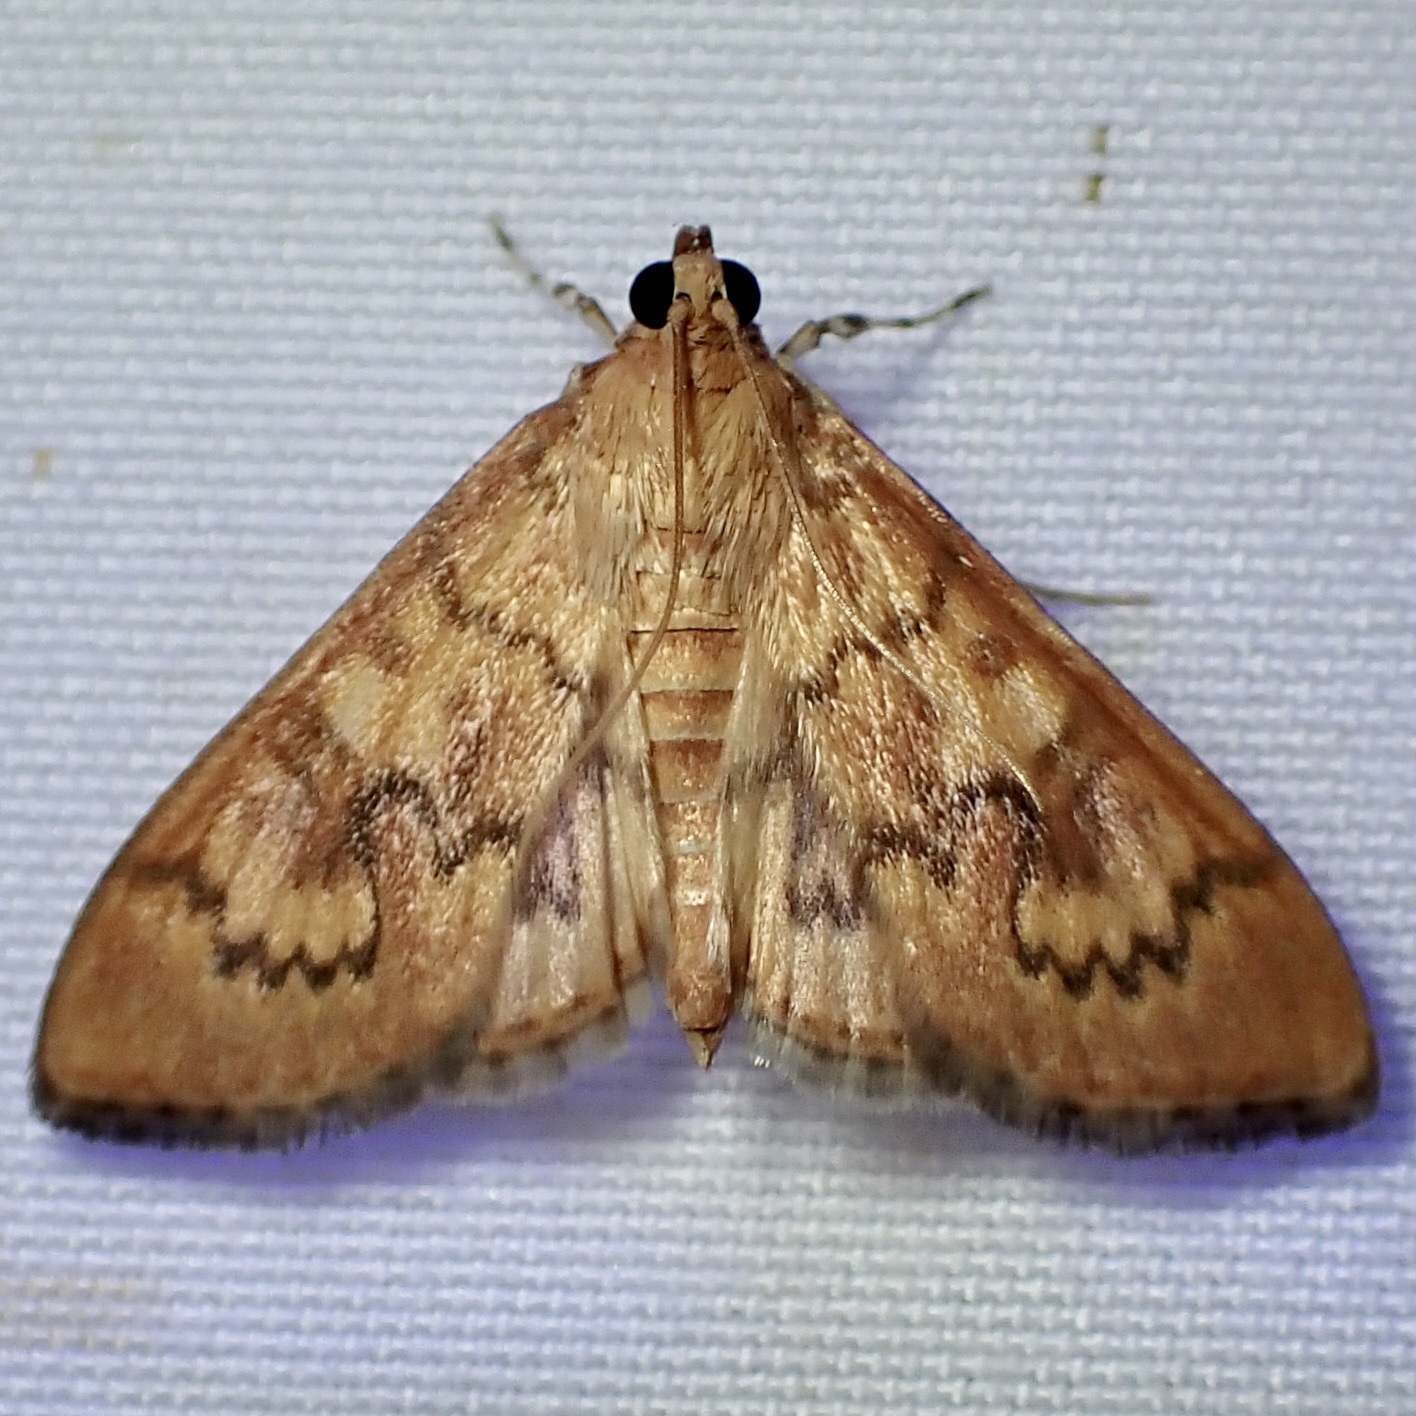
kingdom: Animalia
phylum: Arthropoda
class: Insecta
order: Lepidoptera
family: Crambidae
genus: Pilocrocis
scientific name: Pilocrocis dryalis
